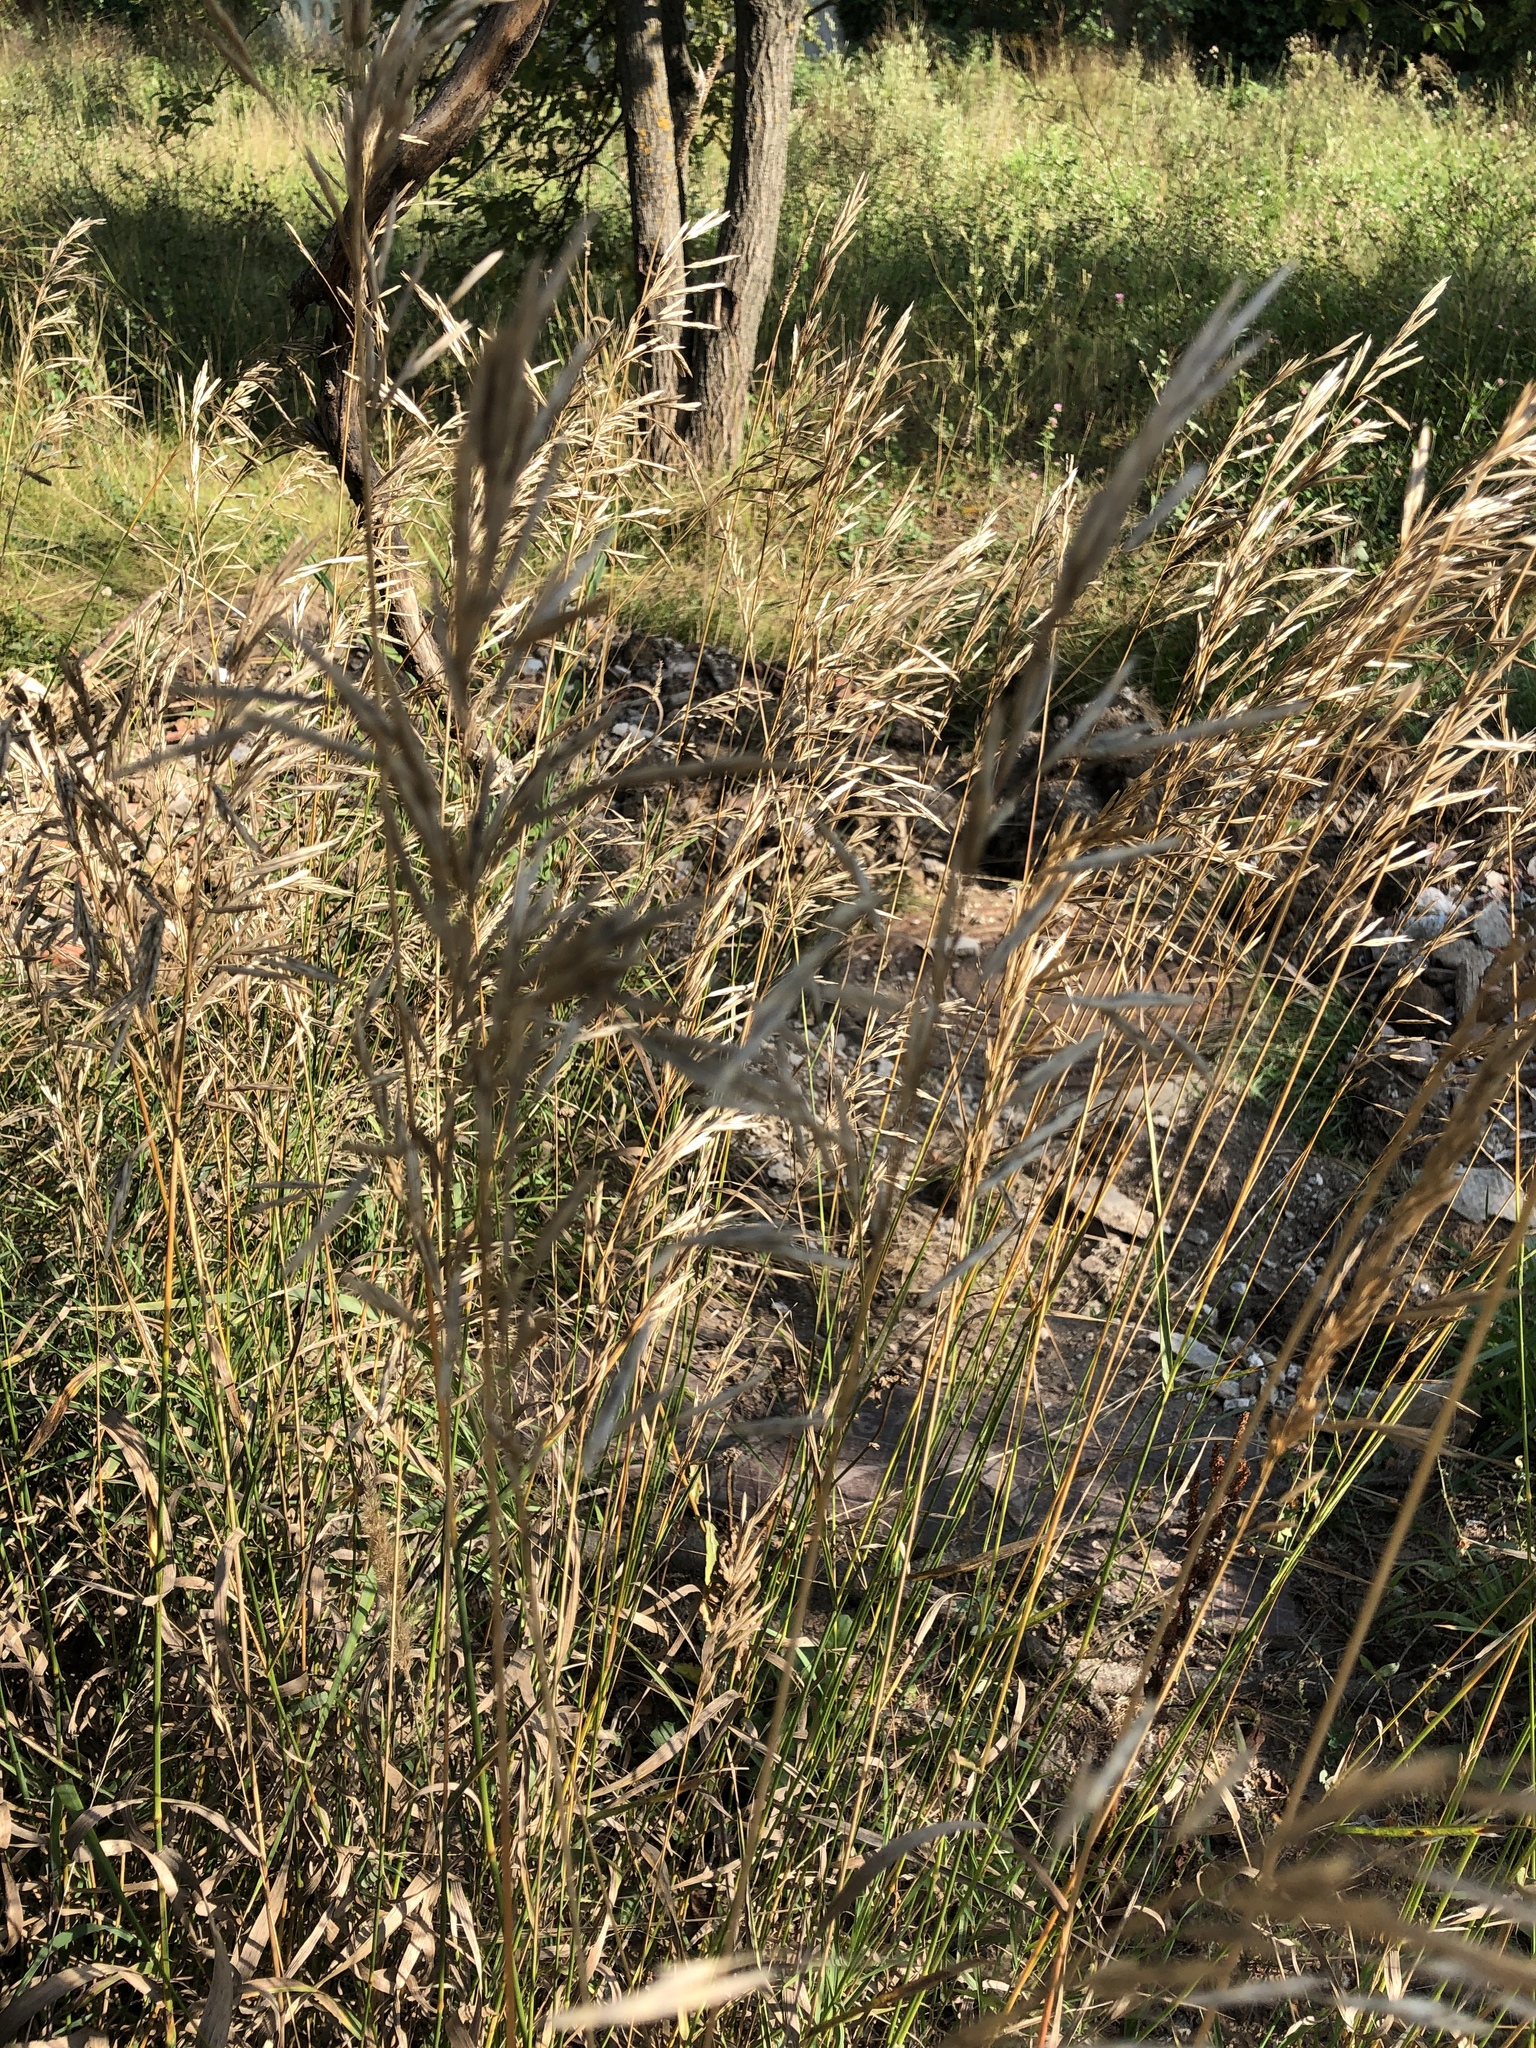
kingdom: Plantae
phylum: Tracheophyta
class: Liliopsida
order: Poales
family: Poaceae
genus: Bromus
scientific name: Bromus inermis
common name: Smooth brome
